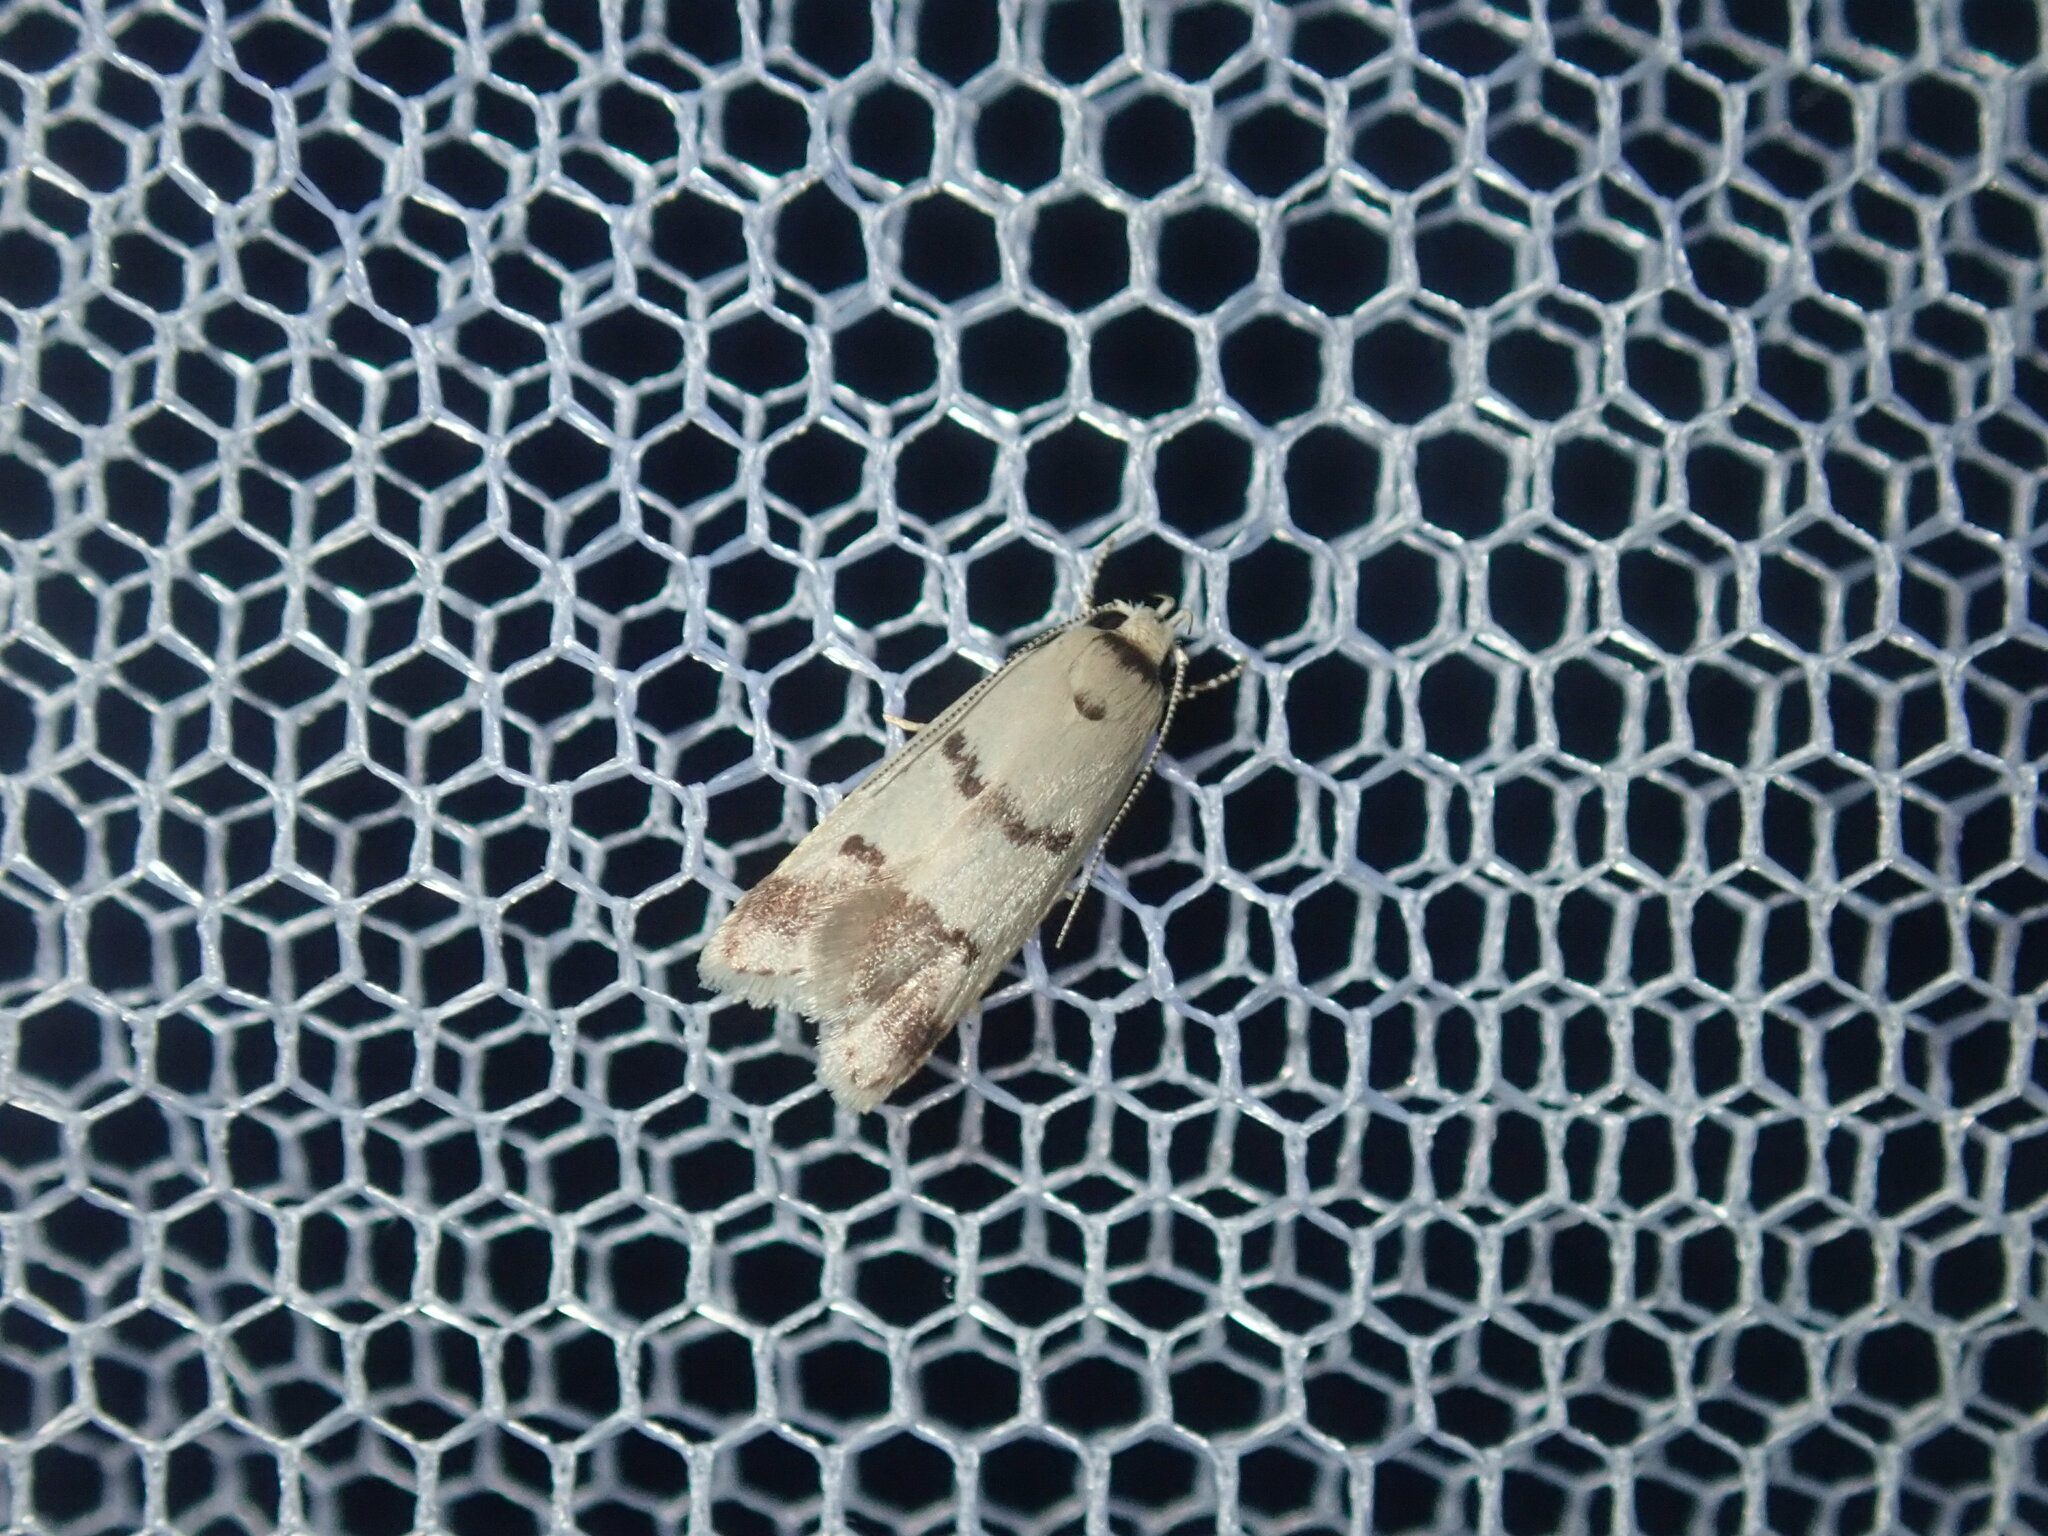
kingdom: Animalia
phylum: Arthropoda
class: Insecta
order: Lepidoptera
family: Oecophoridae
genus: Compsotropha
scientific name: Compsotropha strophiella
